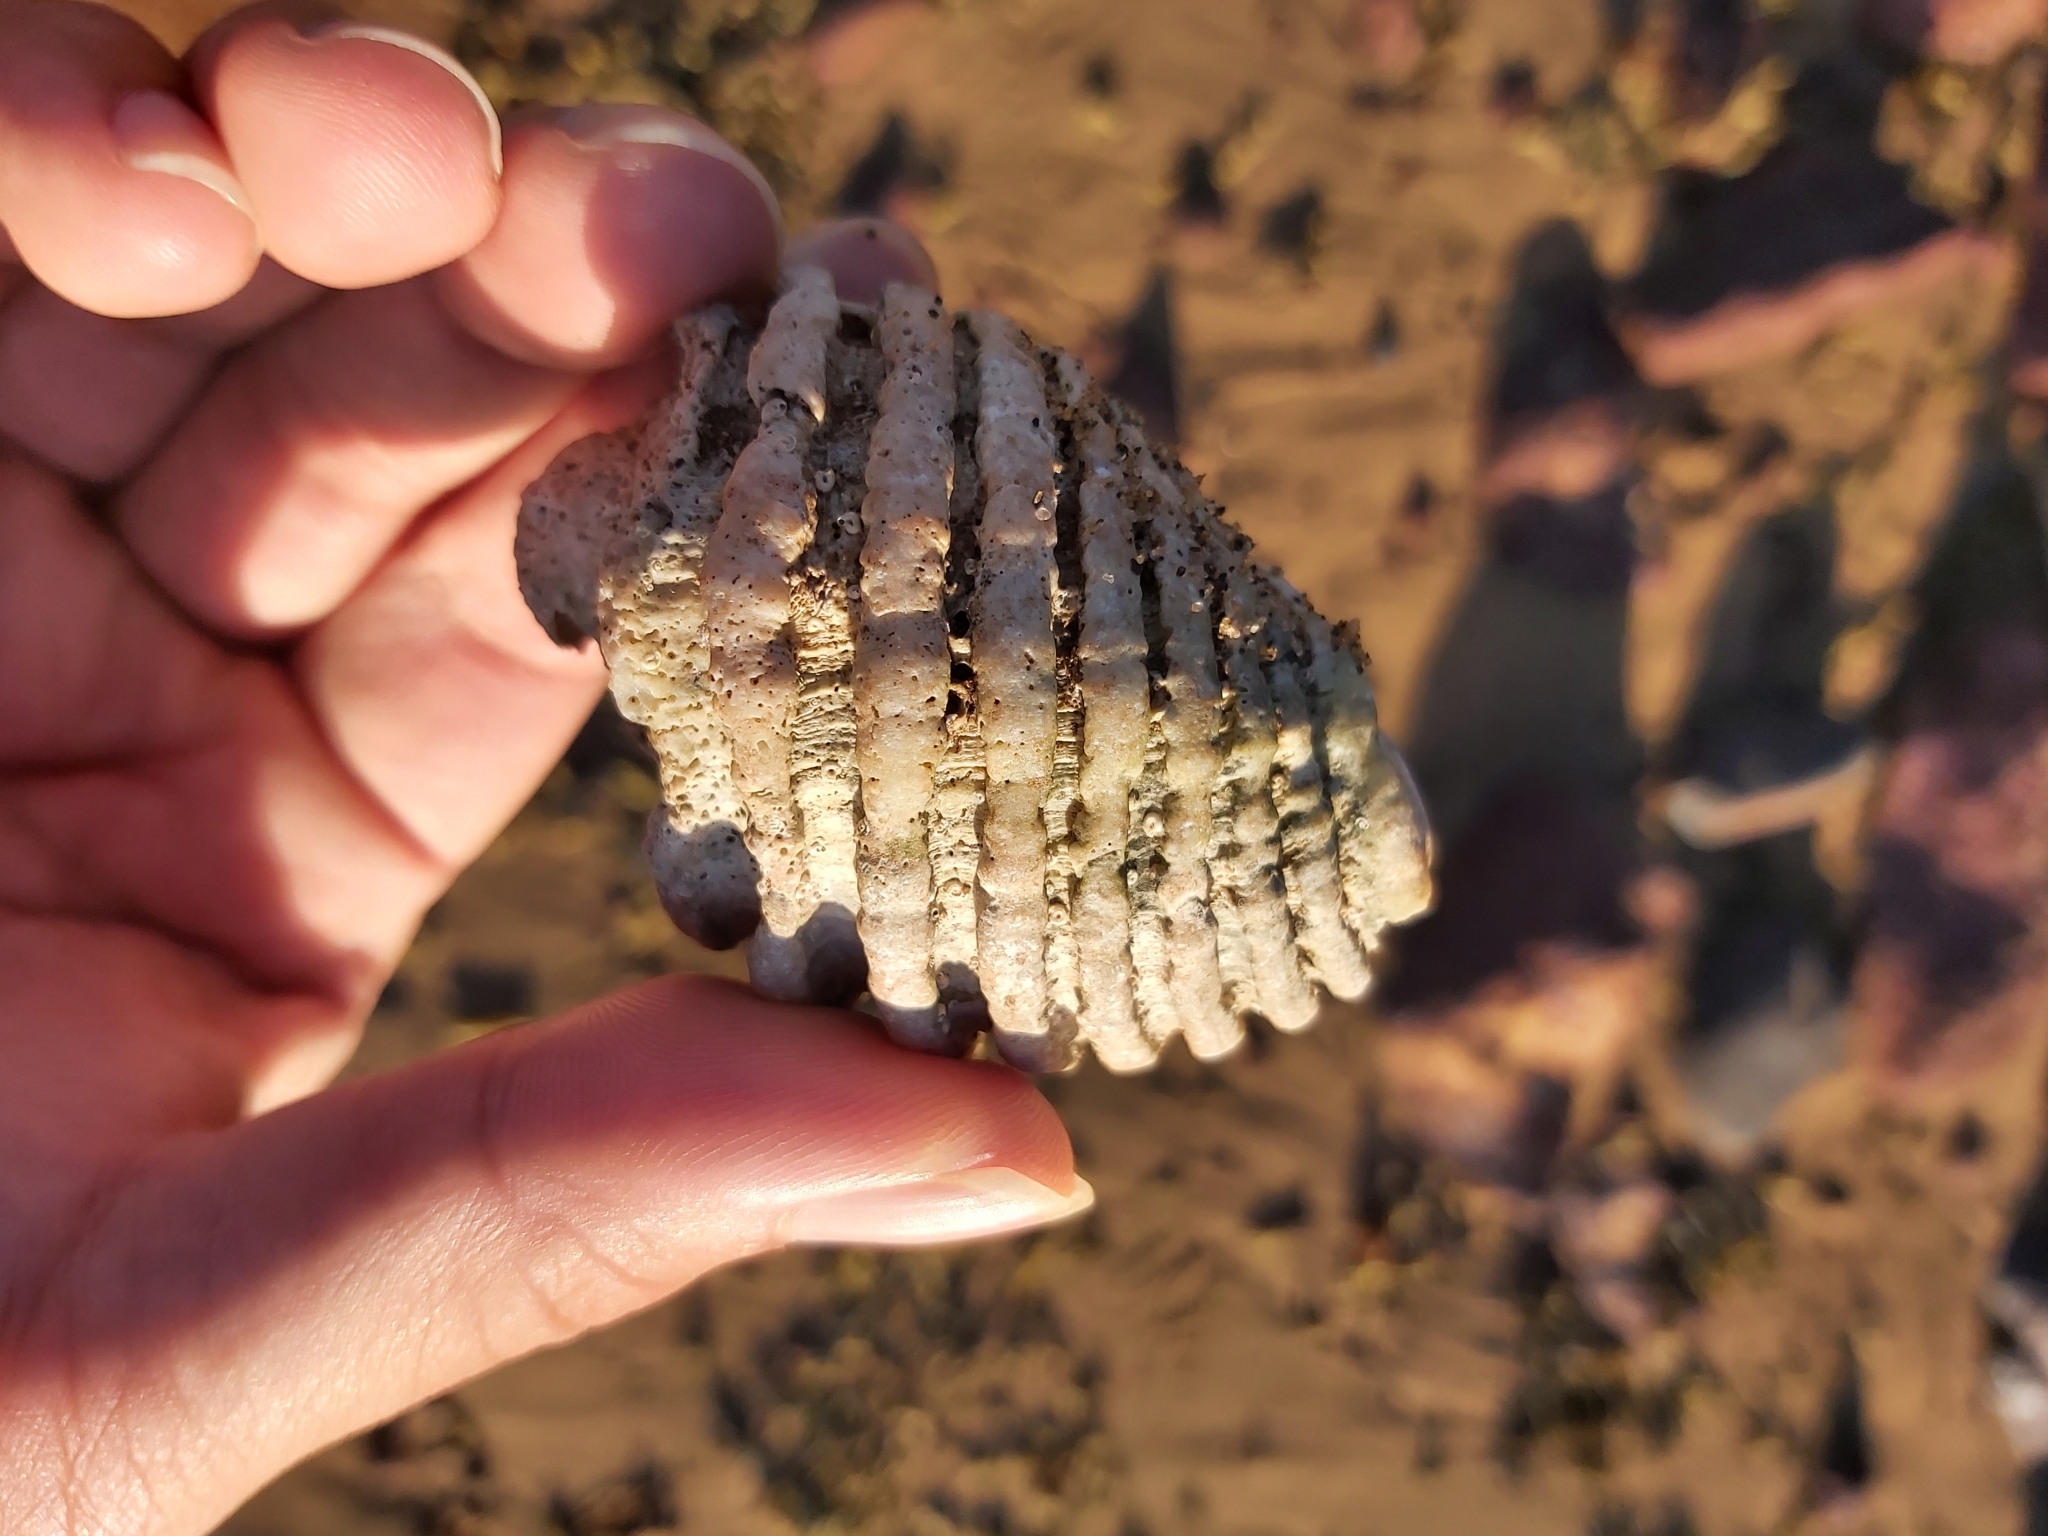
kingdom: Animalia
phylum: Mollusca
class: Gastropoda
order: Neogastropoda
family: Muricidae
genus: Dicathais
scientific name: Dicathais orbita
